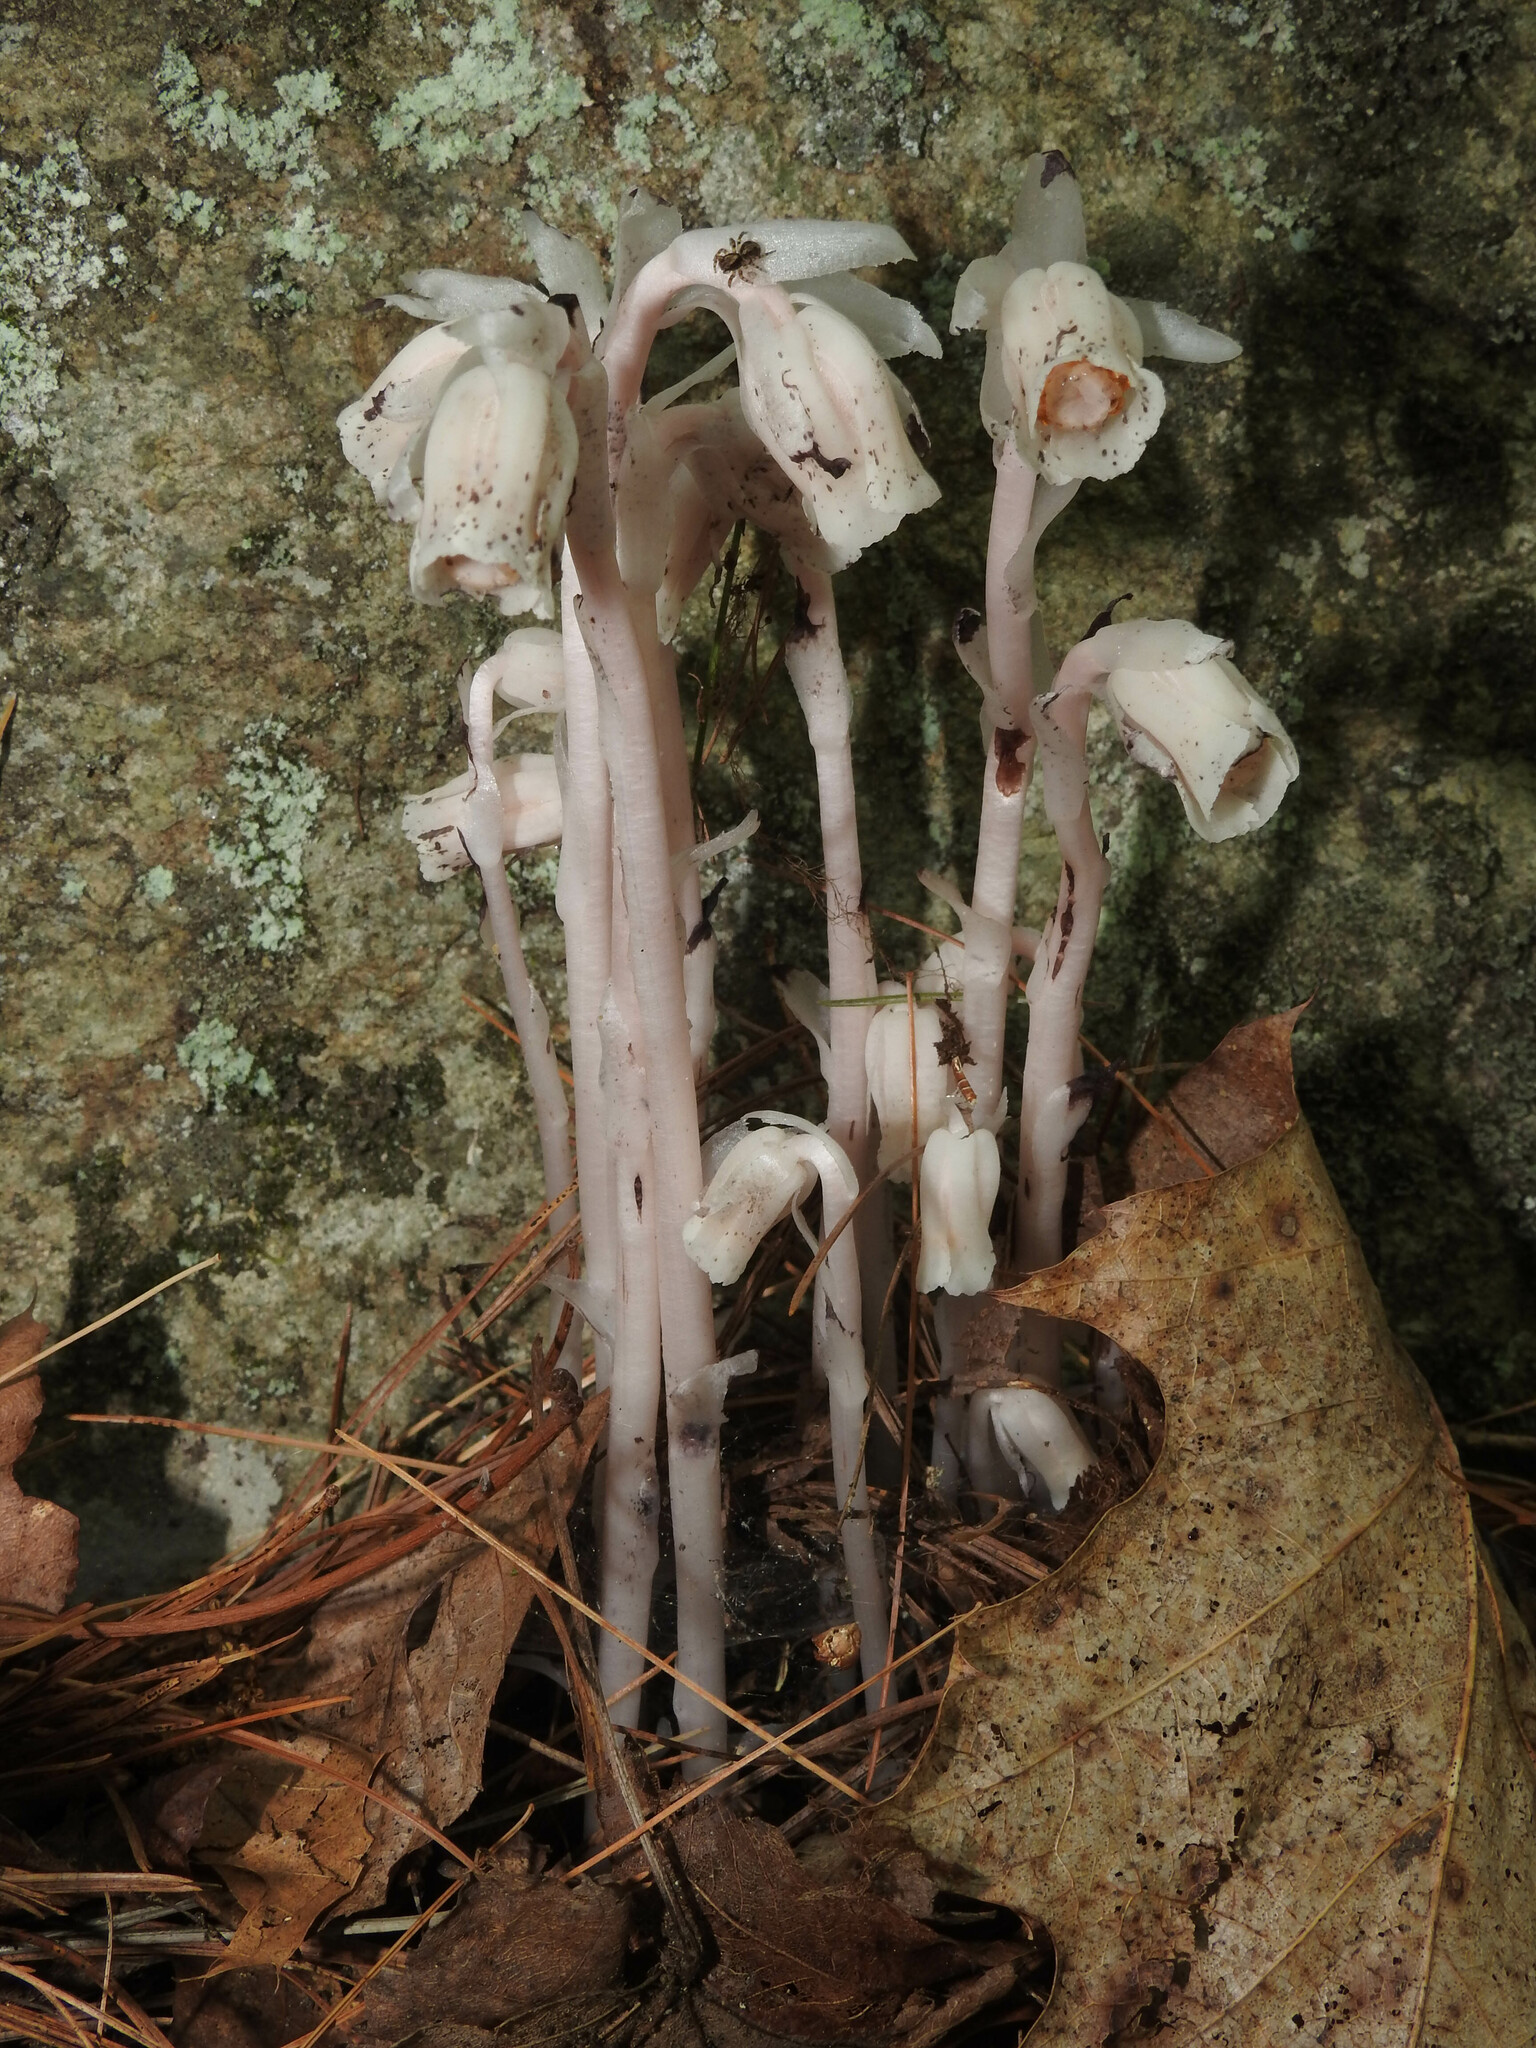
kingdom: Plantae
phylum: Tracheophyta
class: Magnoliopsida
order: Ericales
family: Ericaceae
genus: Monotropa
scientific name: Monotropa uniflora
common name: Convulsion root
